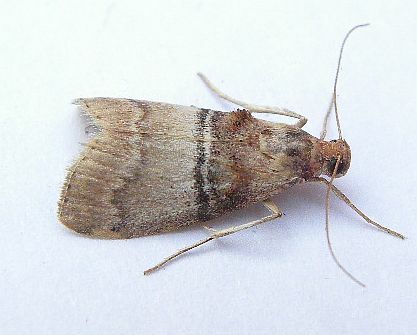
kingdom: Animalia
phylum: Arthropoda
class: Insecta
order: Lepidoptera
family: Pyralidae
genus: Pococera
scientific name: Pococera militella
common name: Sycamore webworm moth
